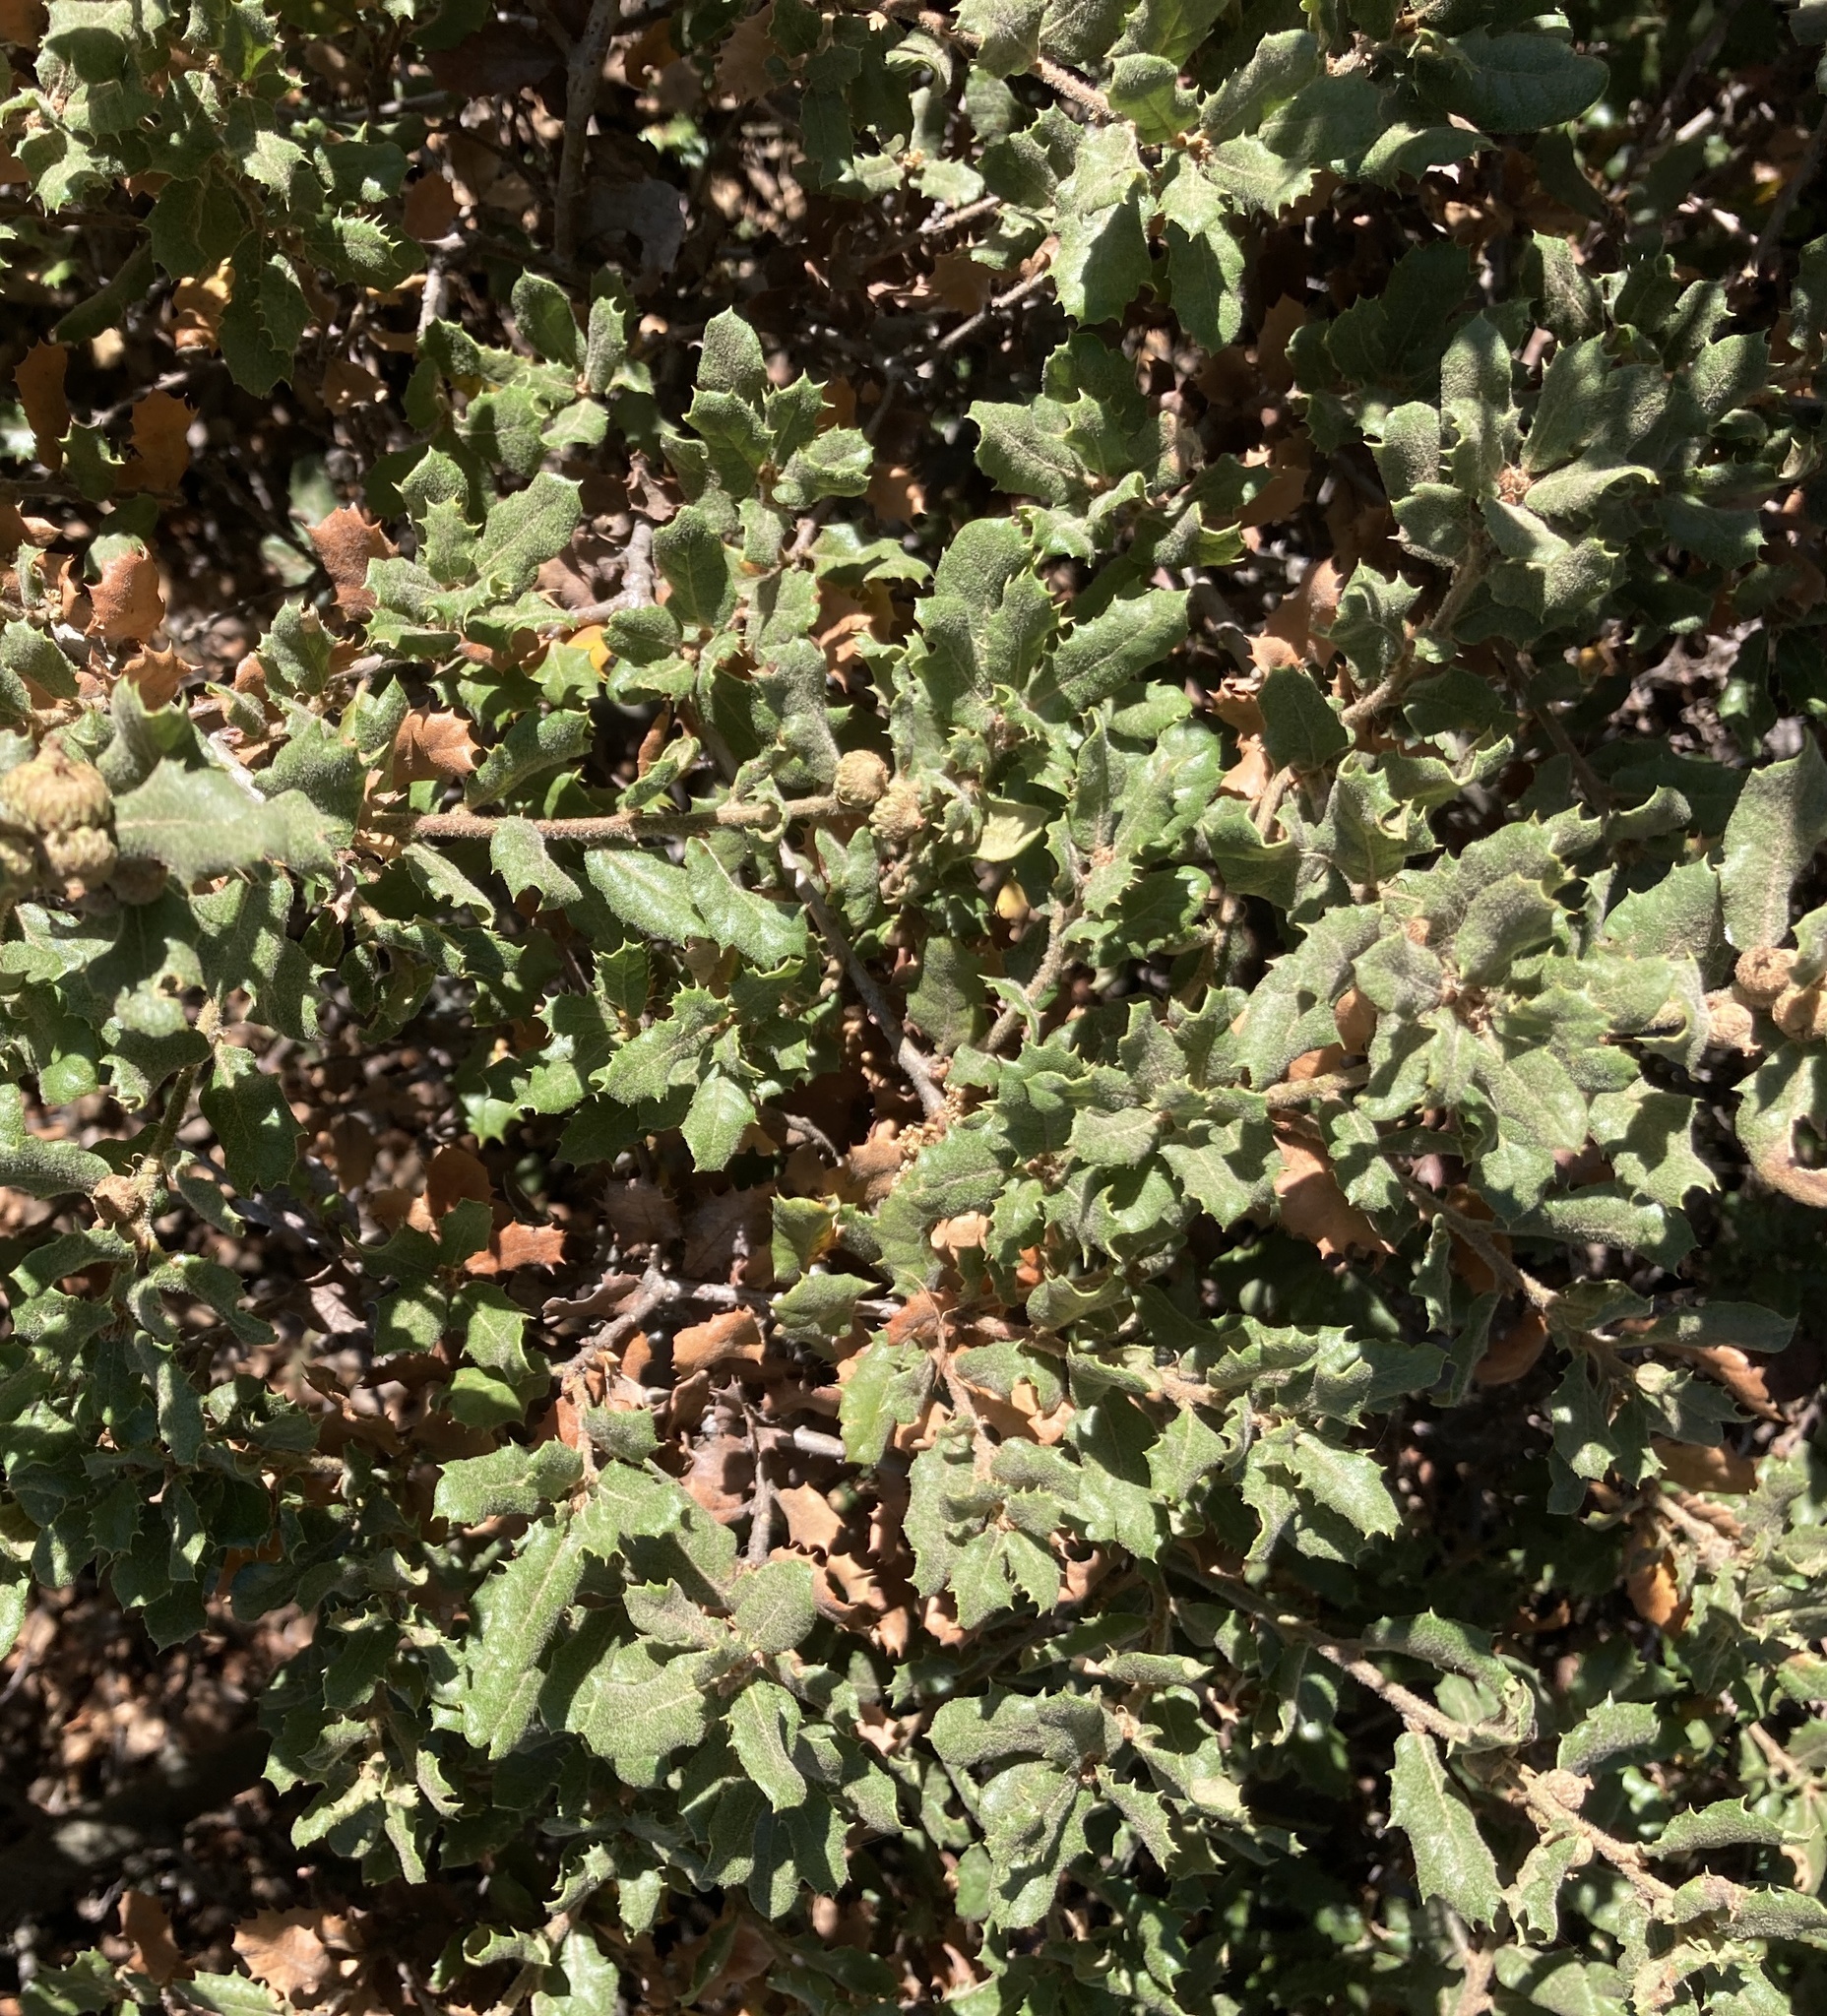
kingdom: Plantae
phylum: Tracheophyta
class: Magnoliopsida
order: Fagales
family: Fagaceae
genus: Quercus
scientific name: Quercus durata
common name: Leather oak
